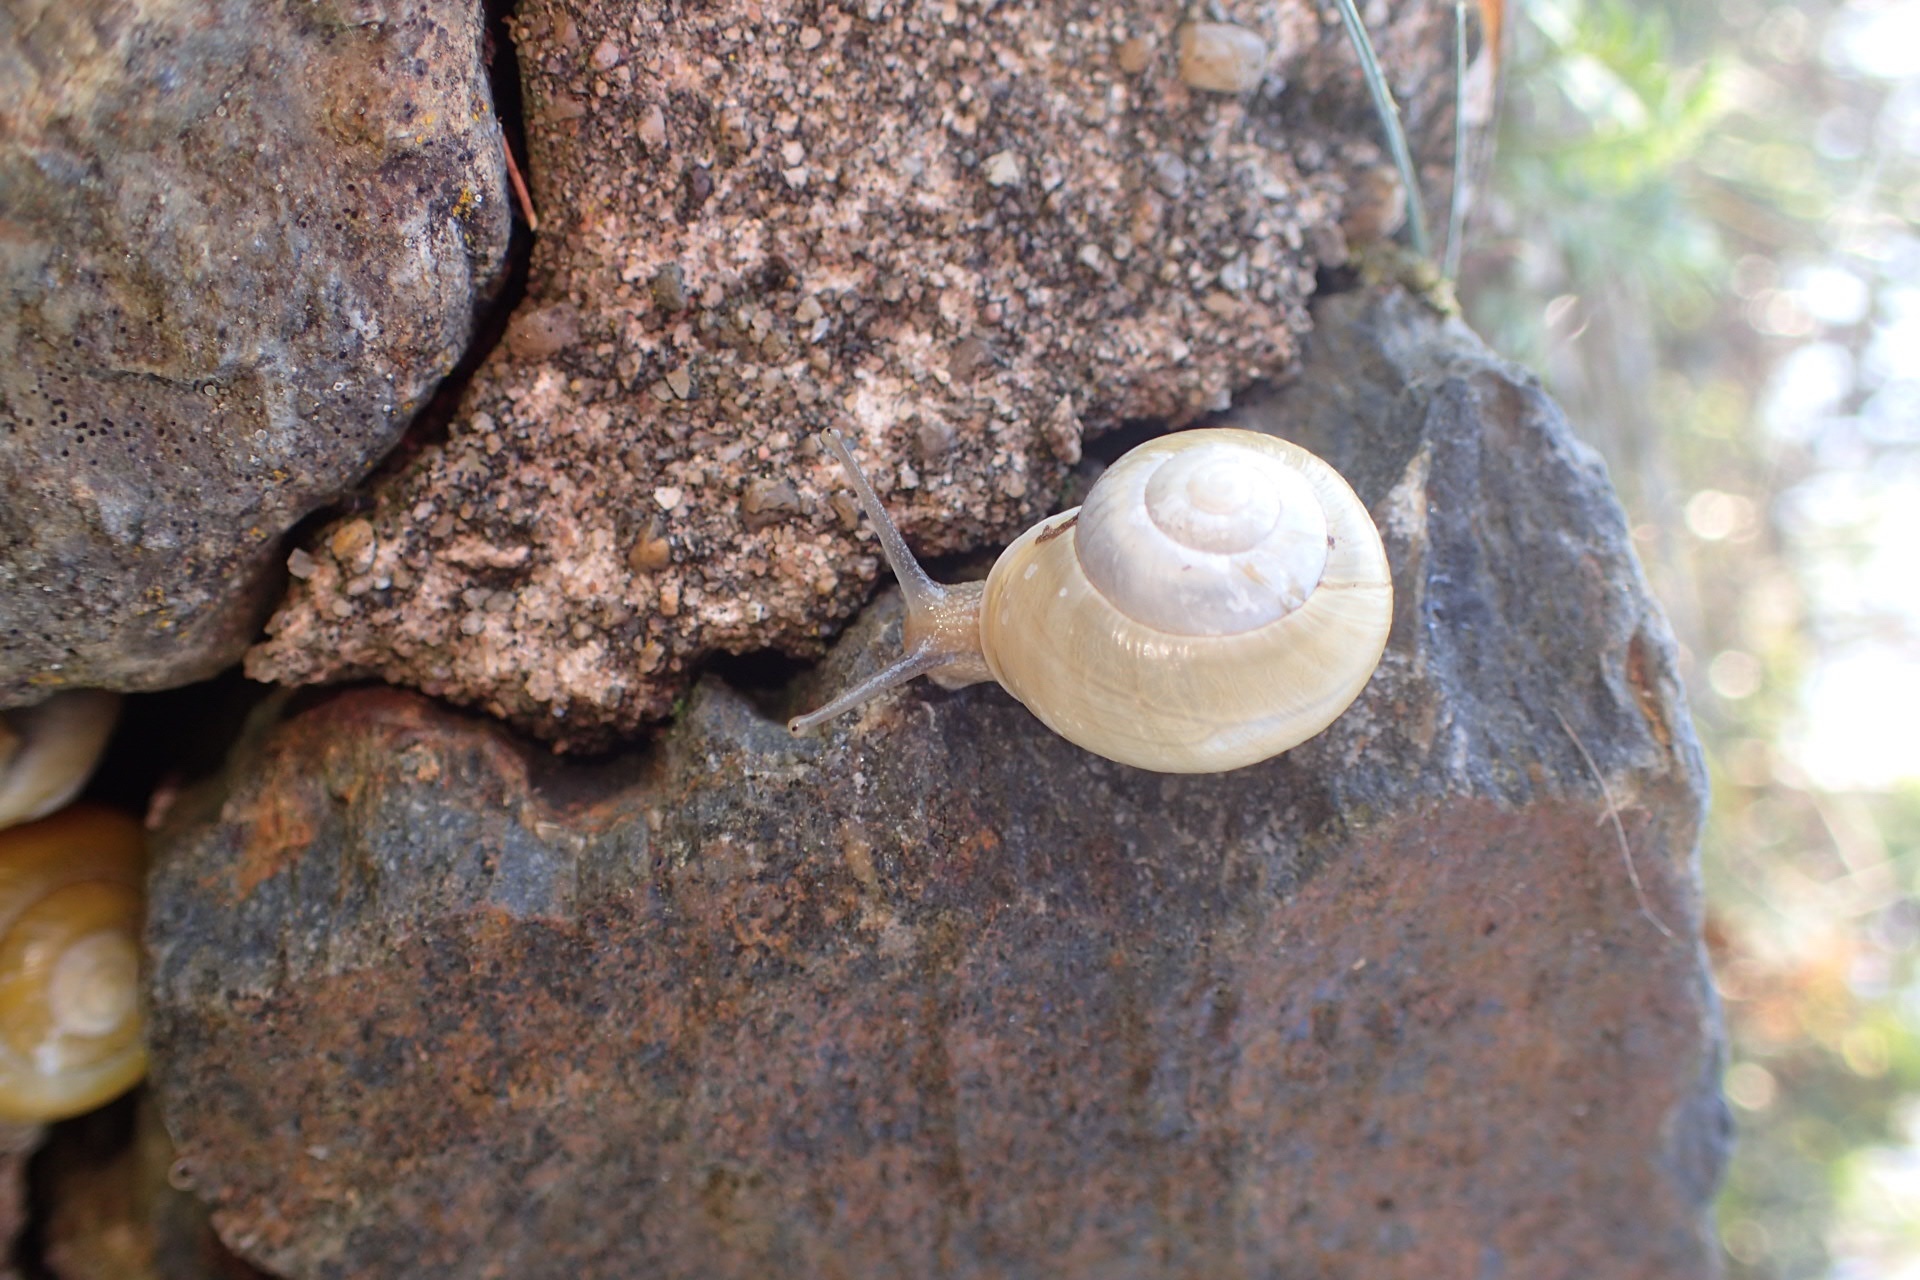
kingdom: Animalia
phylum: Mollusca
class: Gastropoda
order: Stylommatophora
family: Helicidae
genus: Cepaea
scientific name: Cepaea hortensis
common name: White-lip gardensnail
